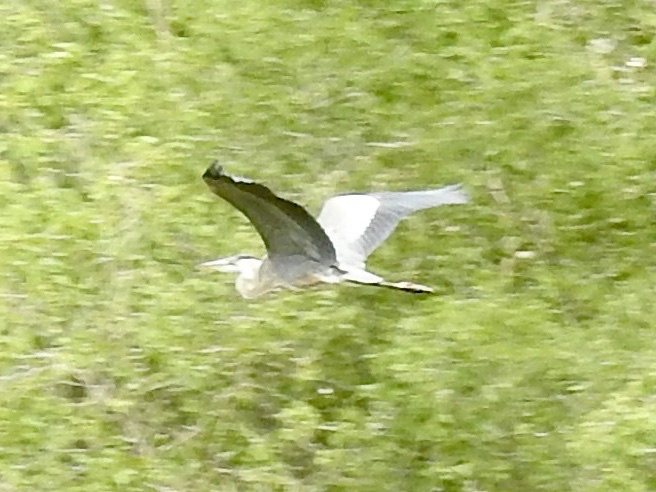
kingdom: Animalia
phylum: Chordata
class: Aves
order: Pelecaniformes
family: Ardeidae
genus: Ardea
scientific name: Ardea herodias
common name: Great blue heron
